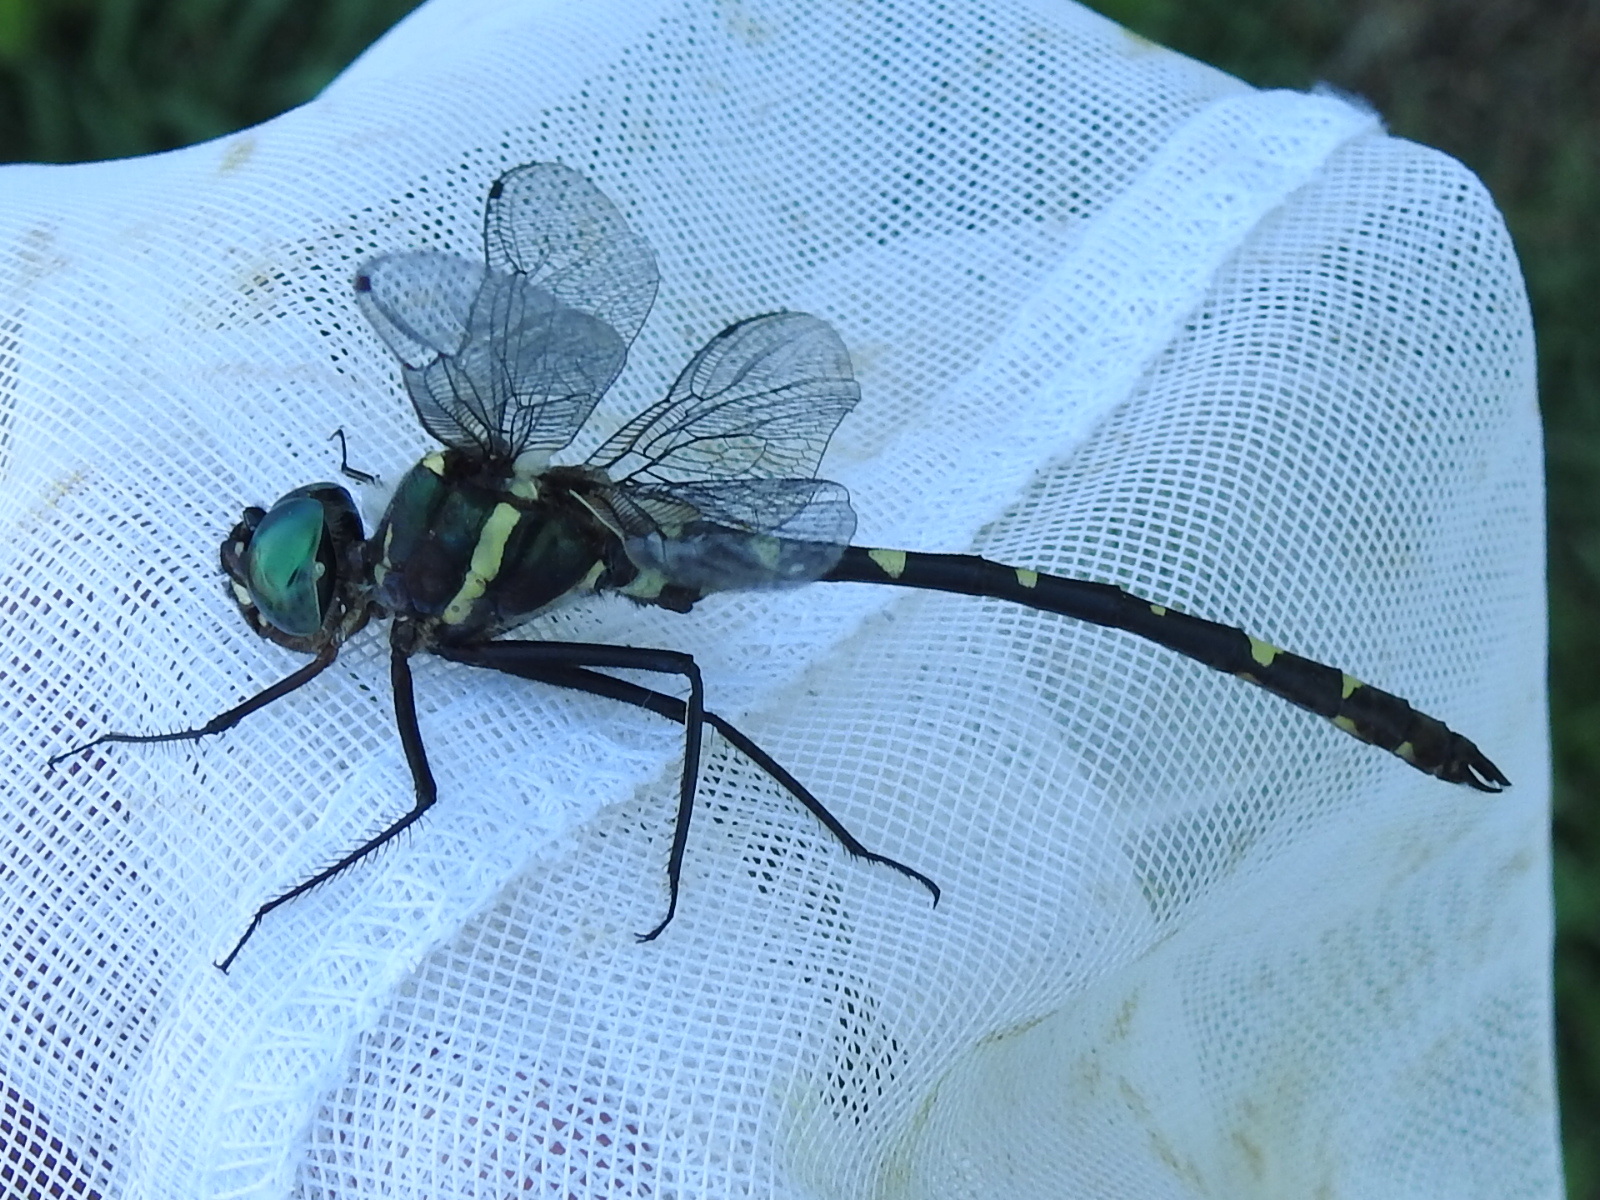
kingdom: Animalia
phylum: Arthropoda
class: Insecta
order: Odonata
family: Macromiidae
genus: Macromia
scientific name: Macromia illinoiensis
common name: Swift river cruiser
